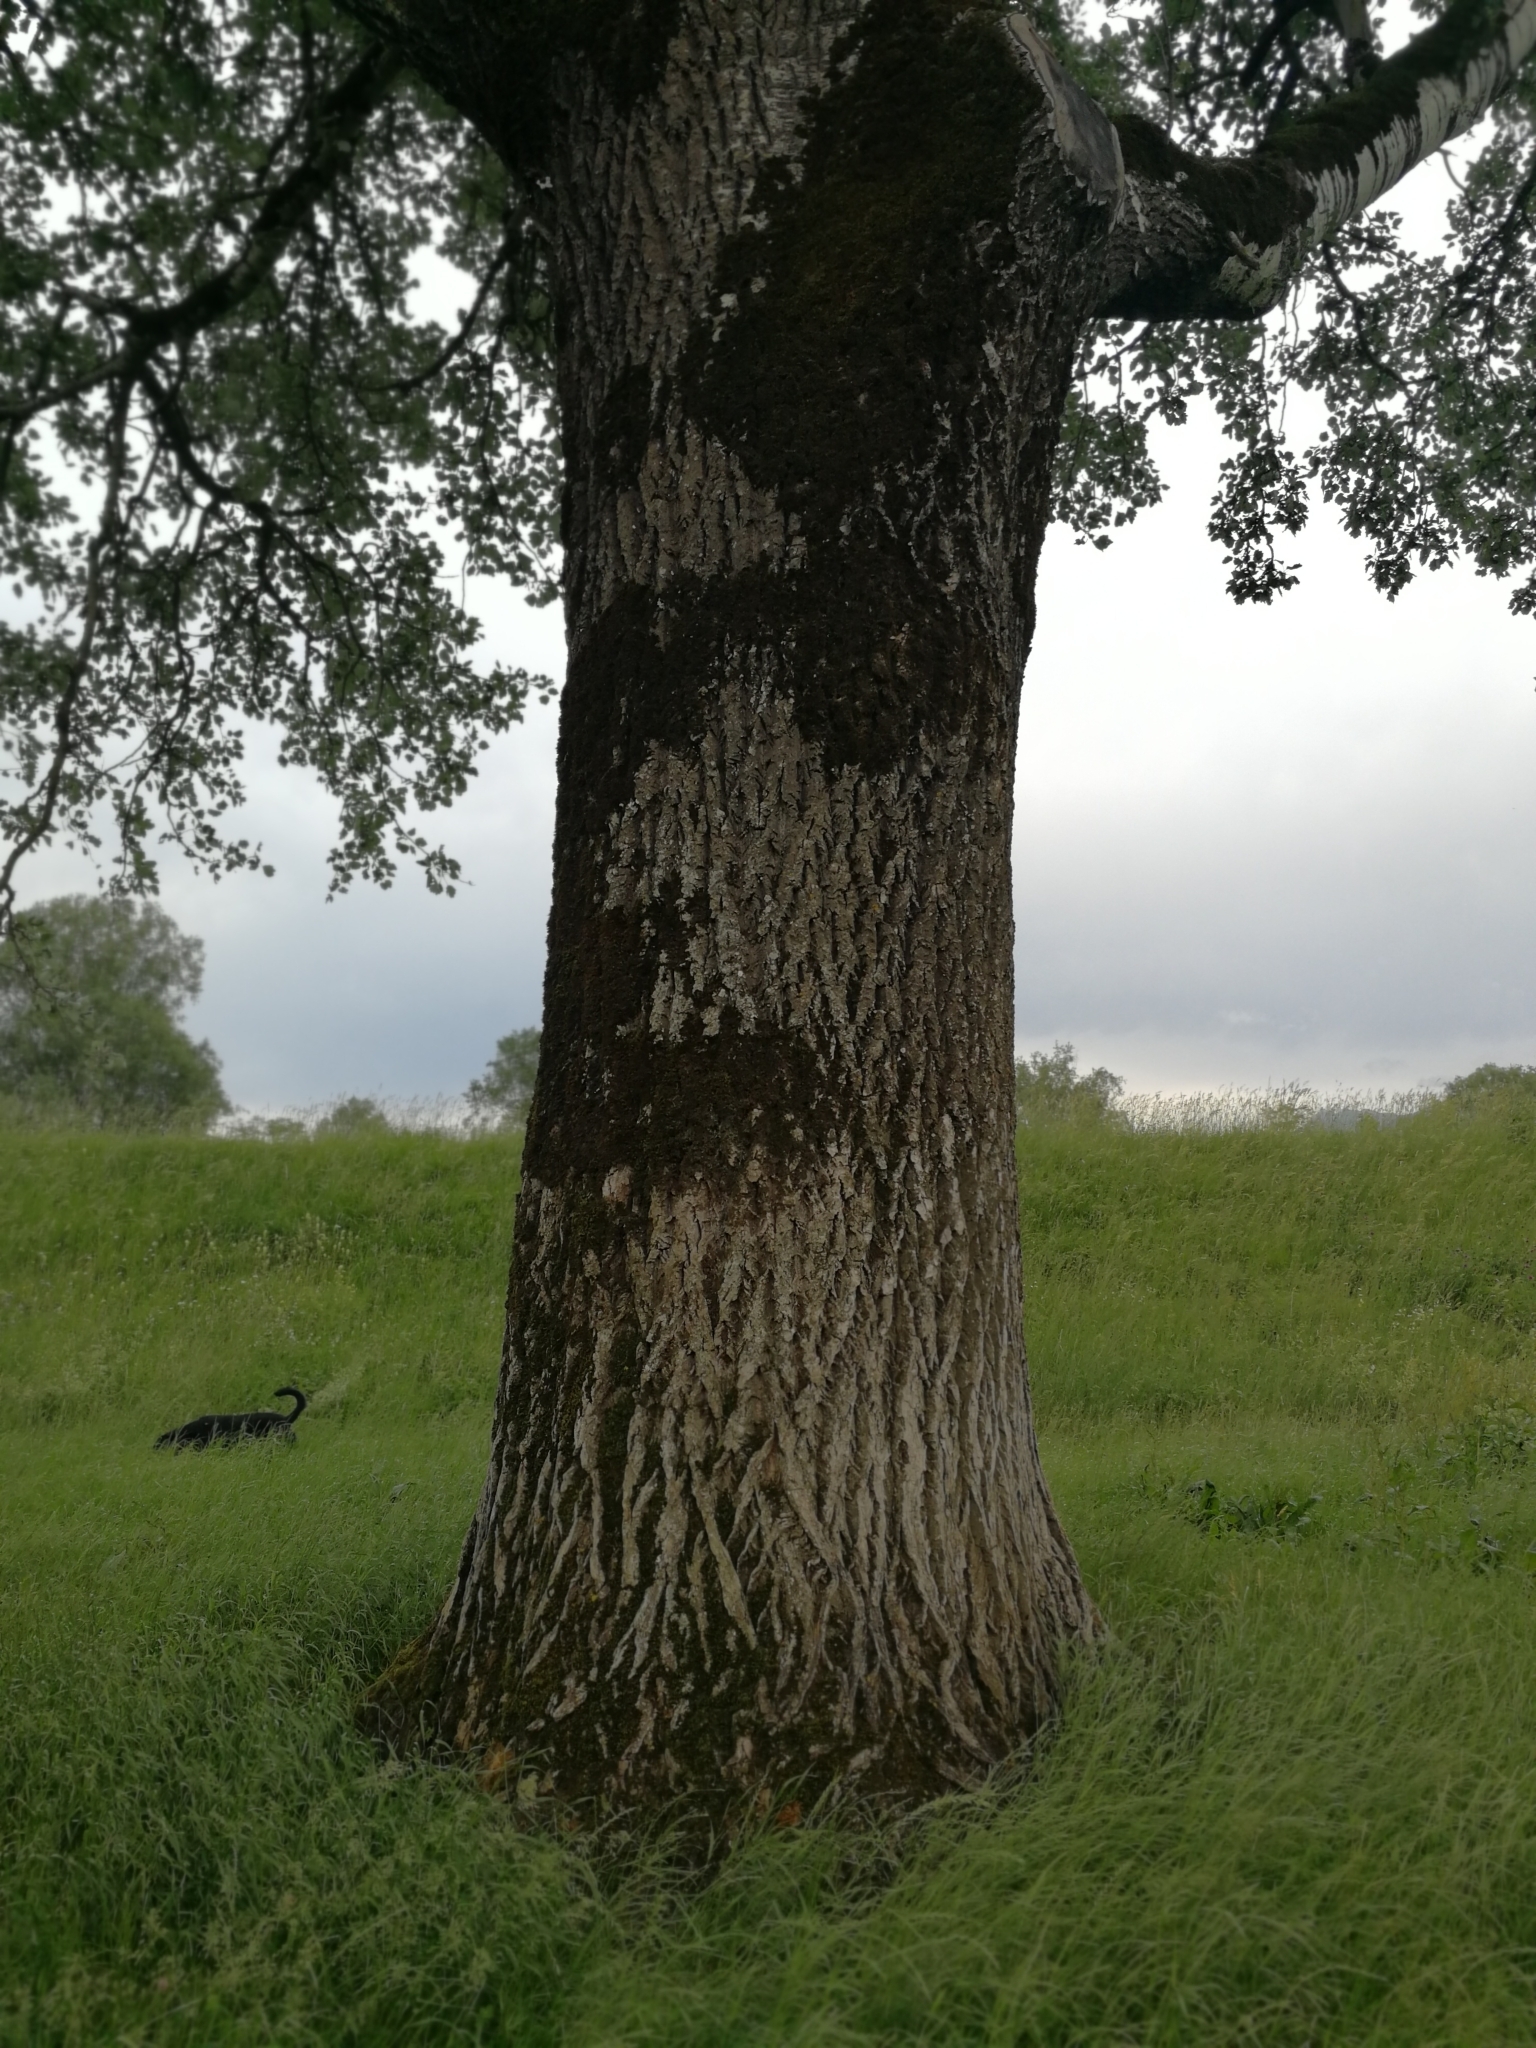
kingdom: Plantae
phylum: Tracheophyta
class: Magnoliopsida
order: Malpighiales
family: Salicaceae
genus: Populus
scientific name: Populus alba
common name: White poplar
